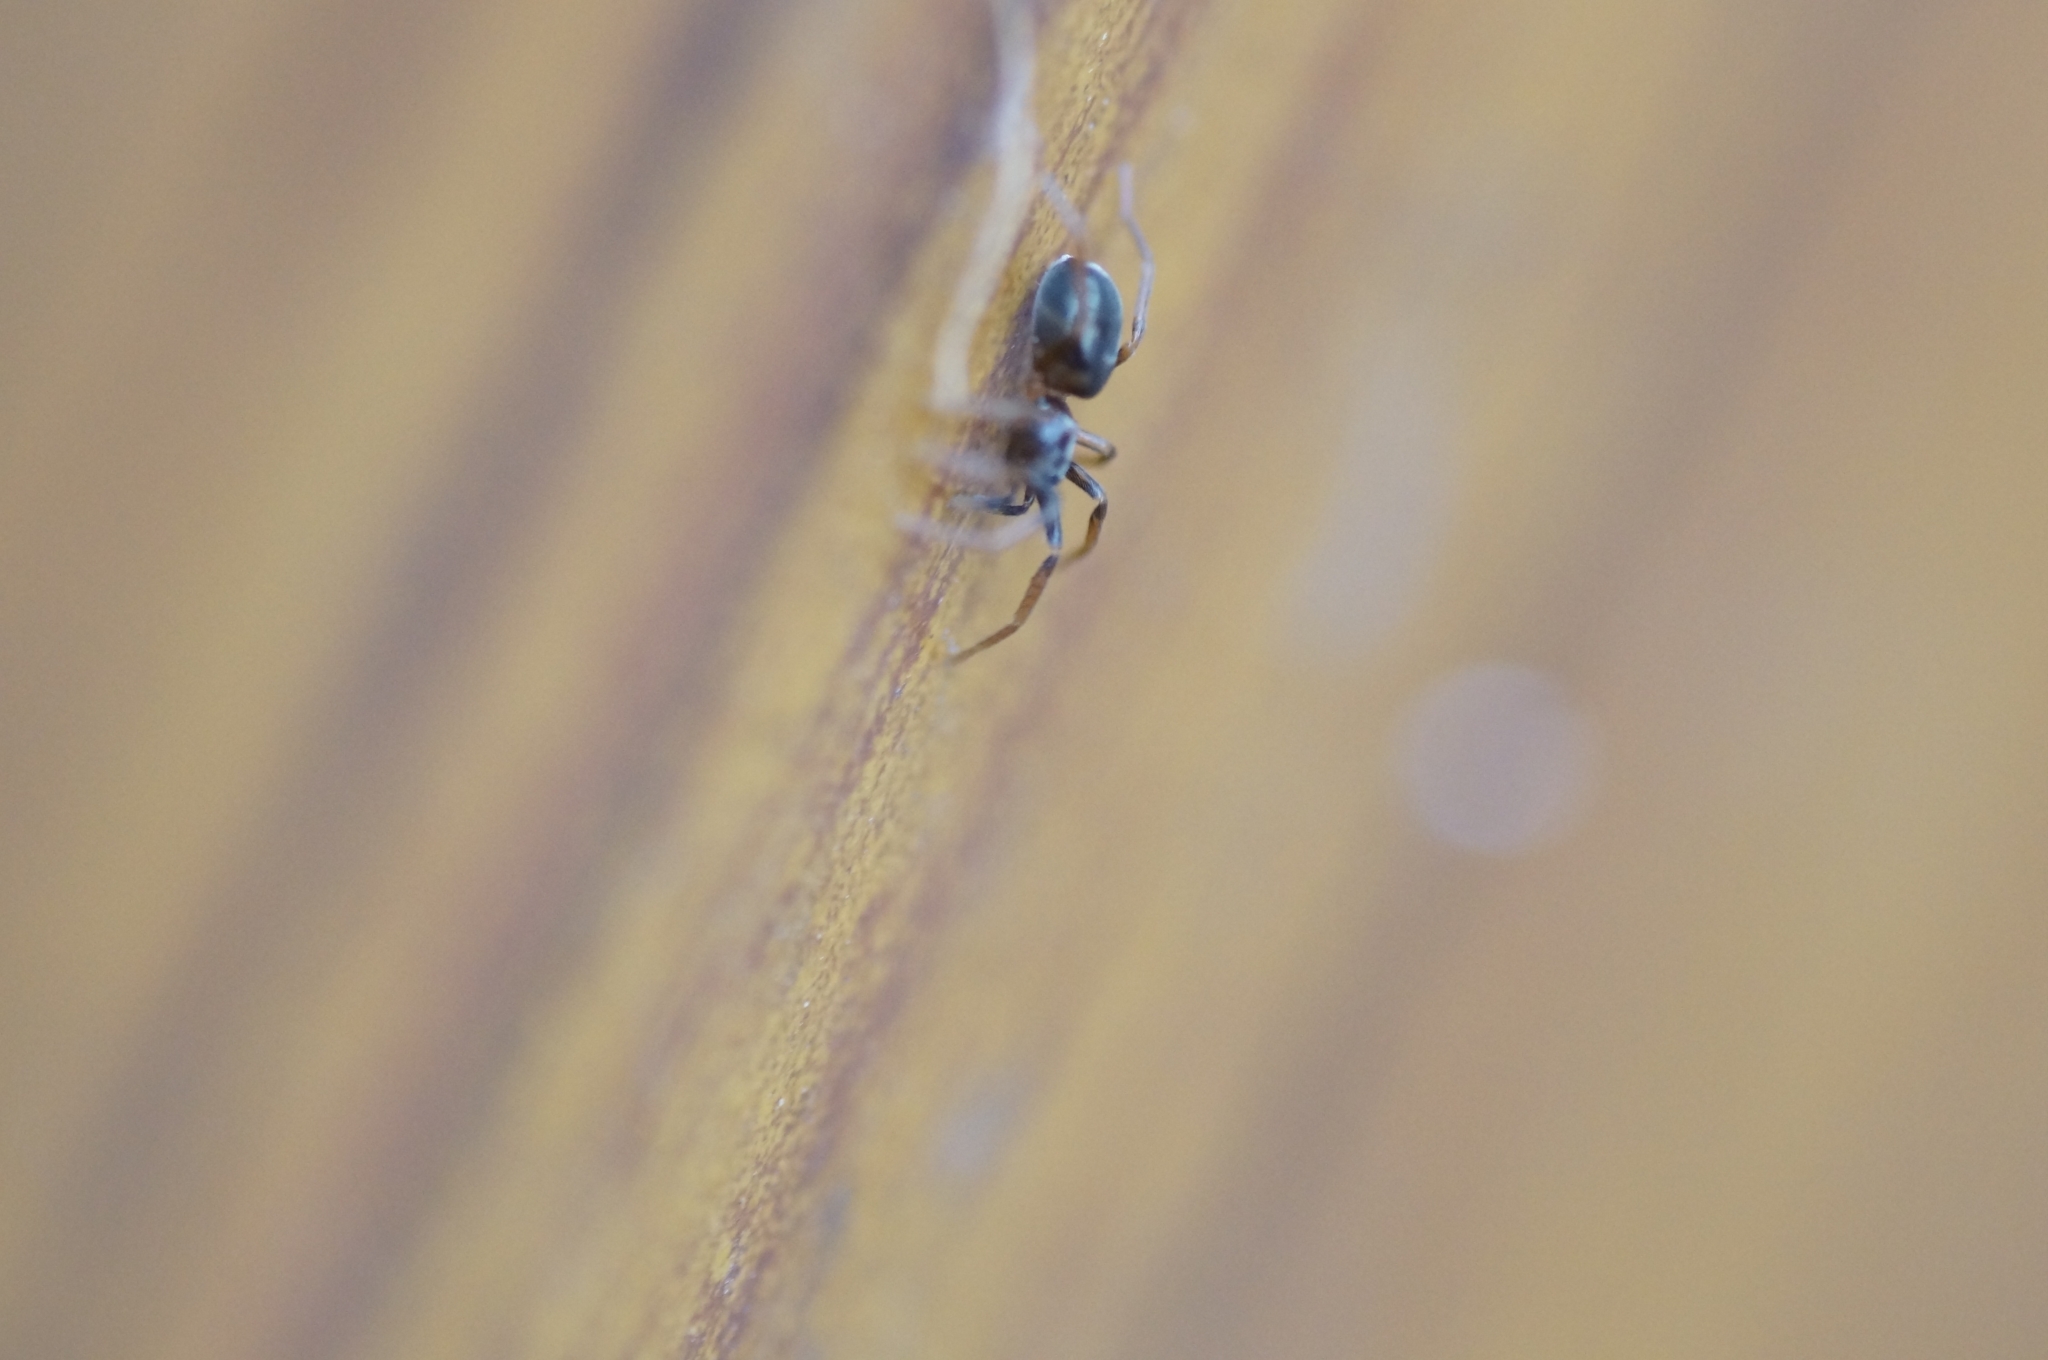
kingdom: Animalia
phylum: Arthropoda
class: Arachnida
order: Araneae
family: Phrurolithidae
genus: Phrurolithus
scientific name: Phrurolithus festivus
